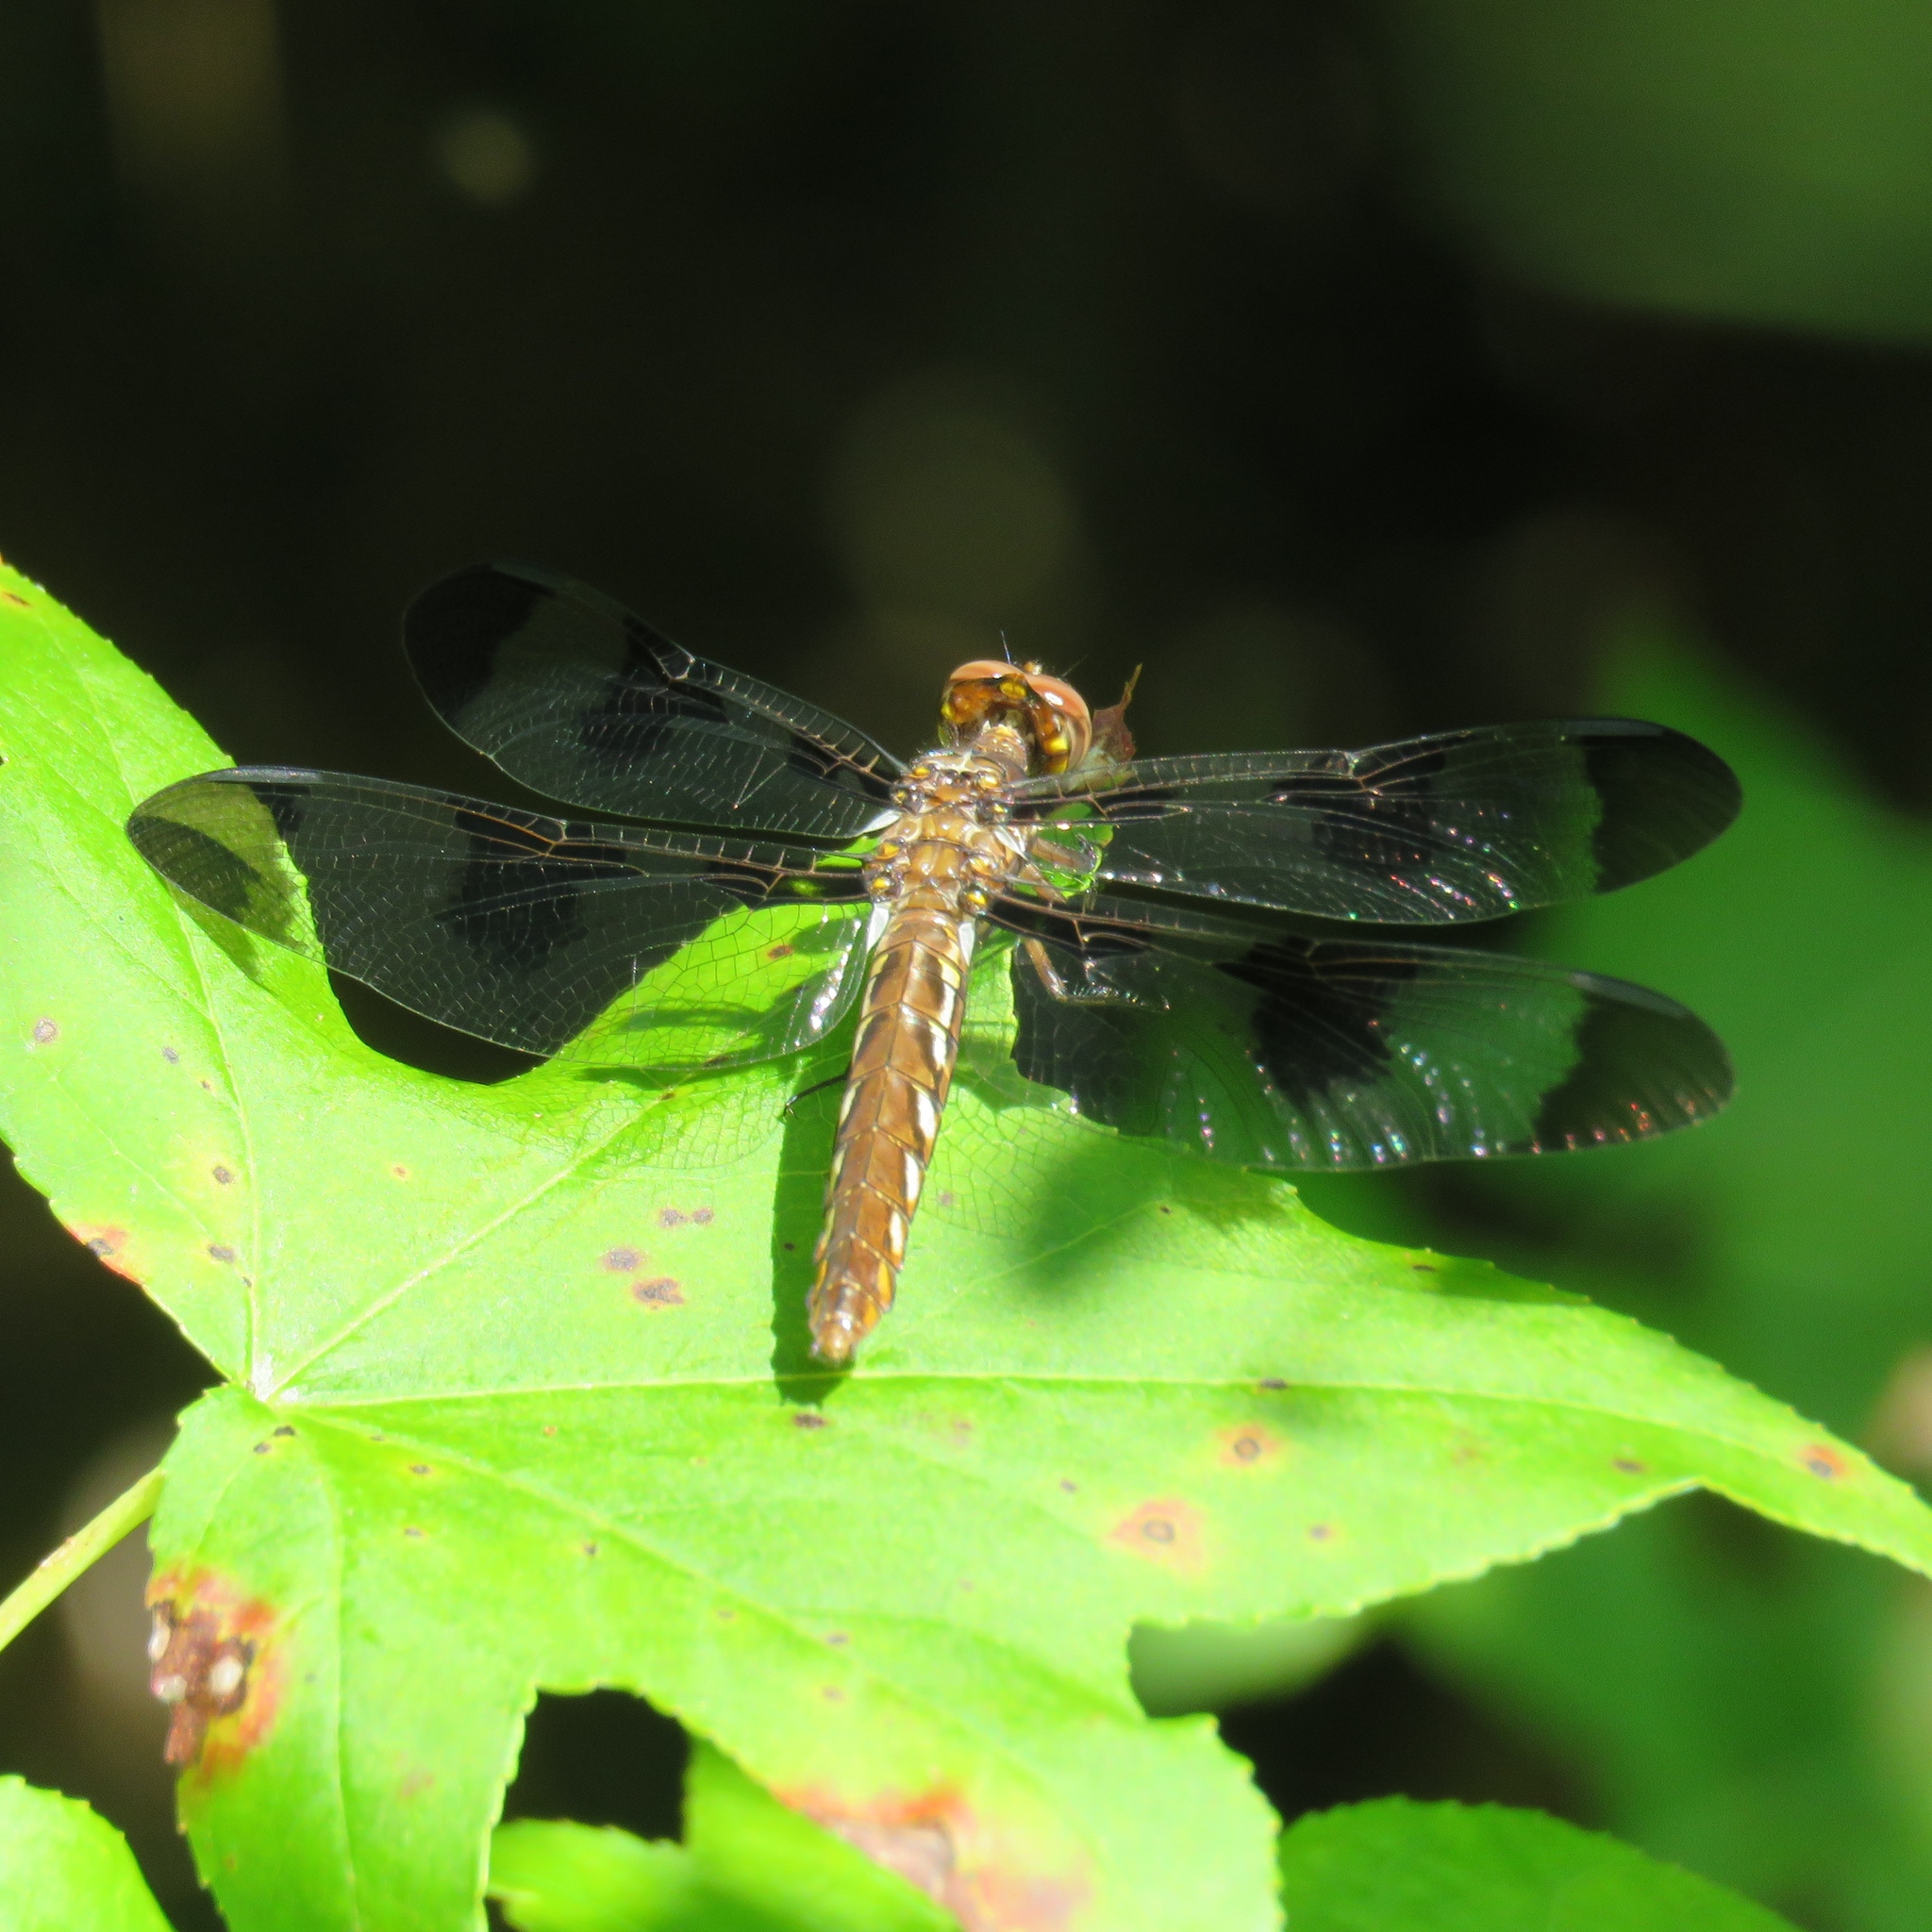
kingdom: Animalia
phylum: Arthropoda
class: Insecta
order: Odonata
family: Libellulidae
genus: Plathemis
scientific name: Plathemis lydia
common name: Common whitetail
